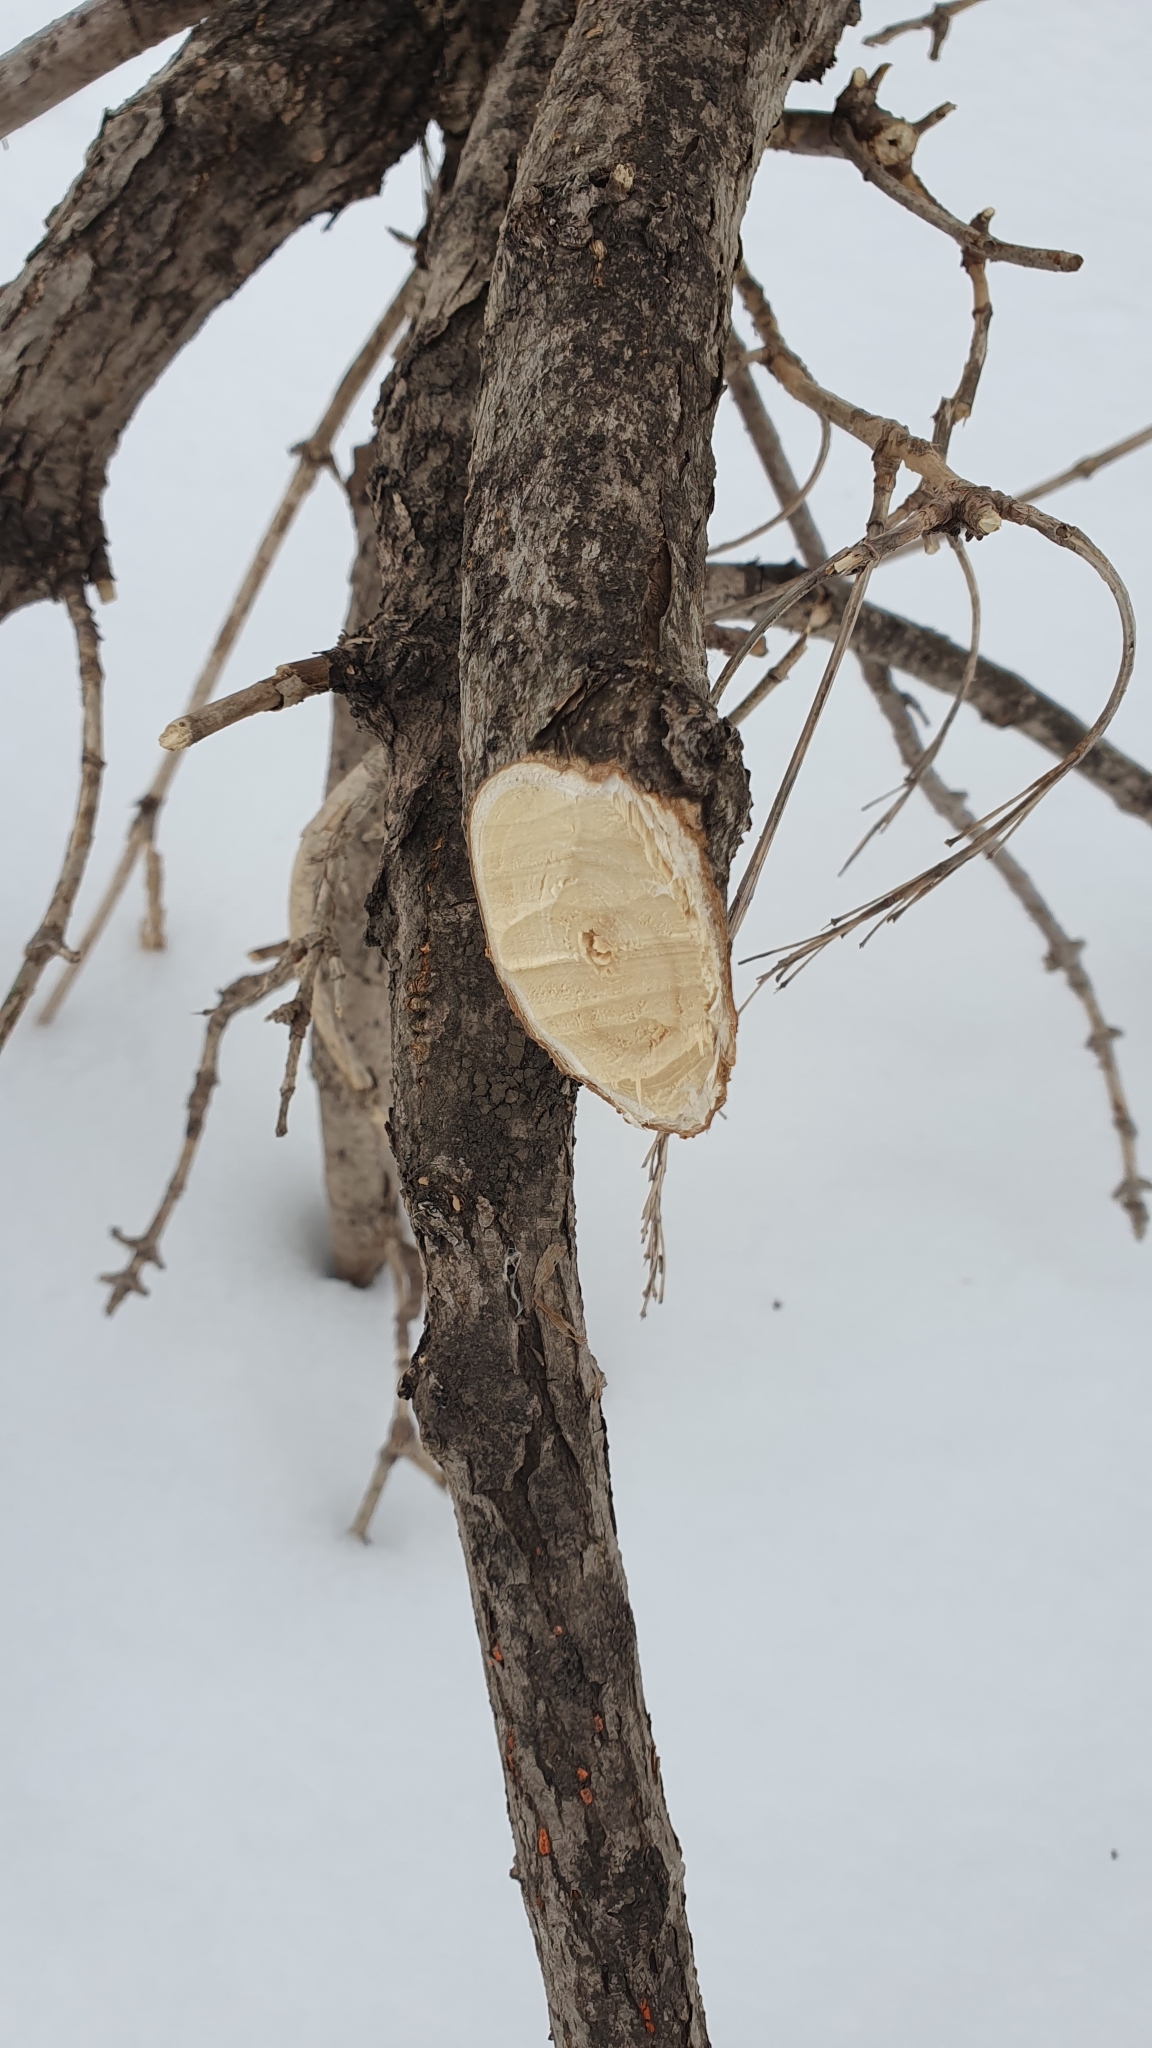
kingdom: Animalia
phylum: Chordata
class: Mammalia
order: Rodentia
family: Castoridae
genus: Castor
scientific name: Castor fiber
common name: Eurasian beaver
